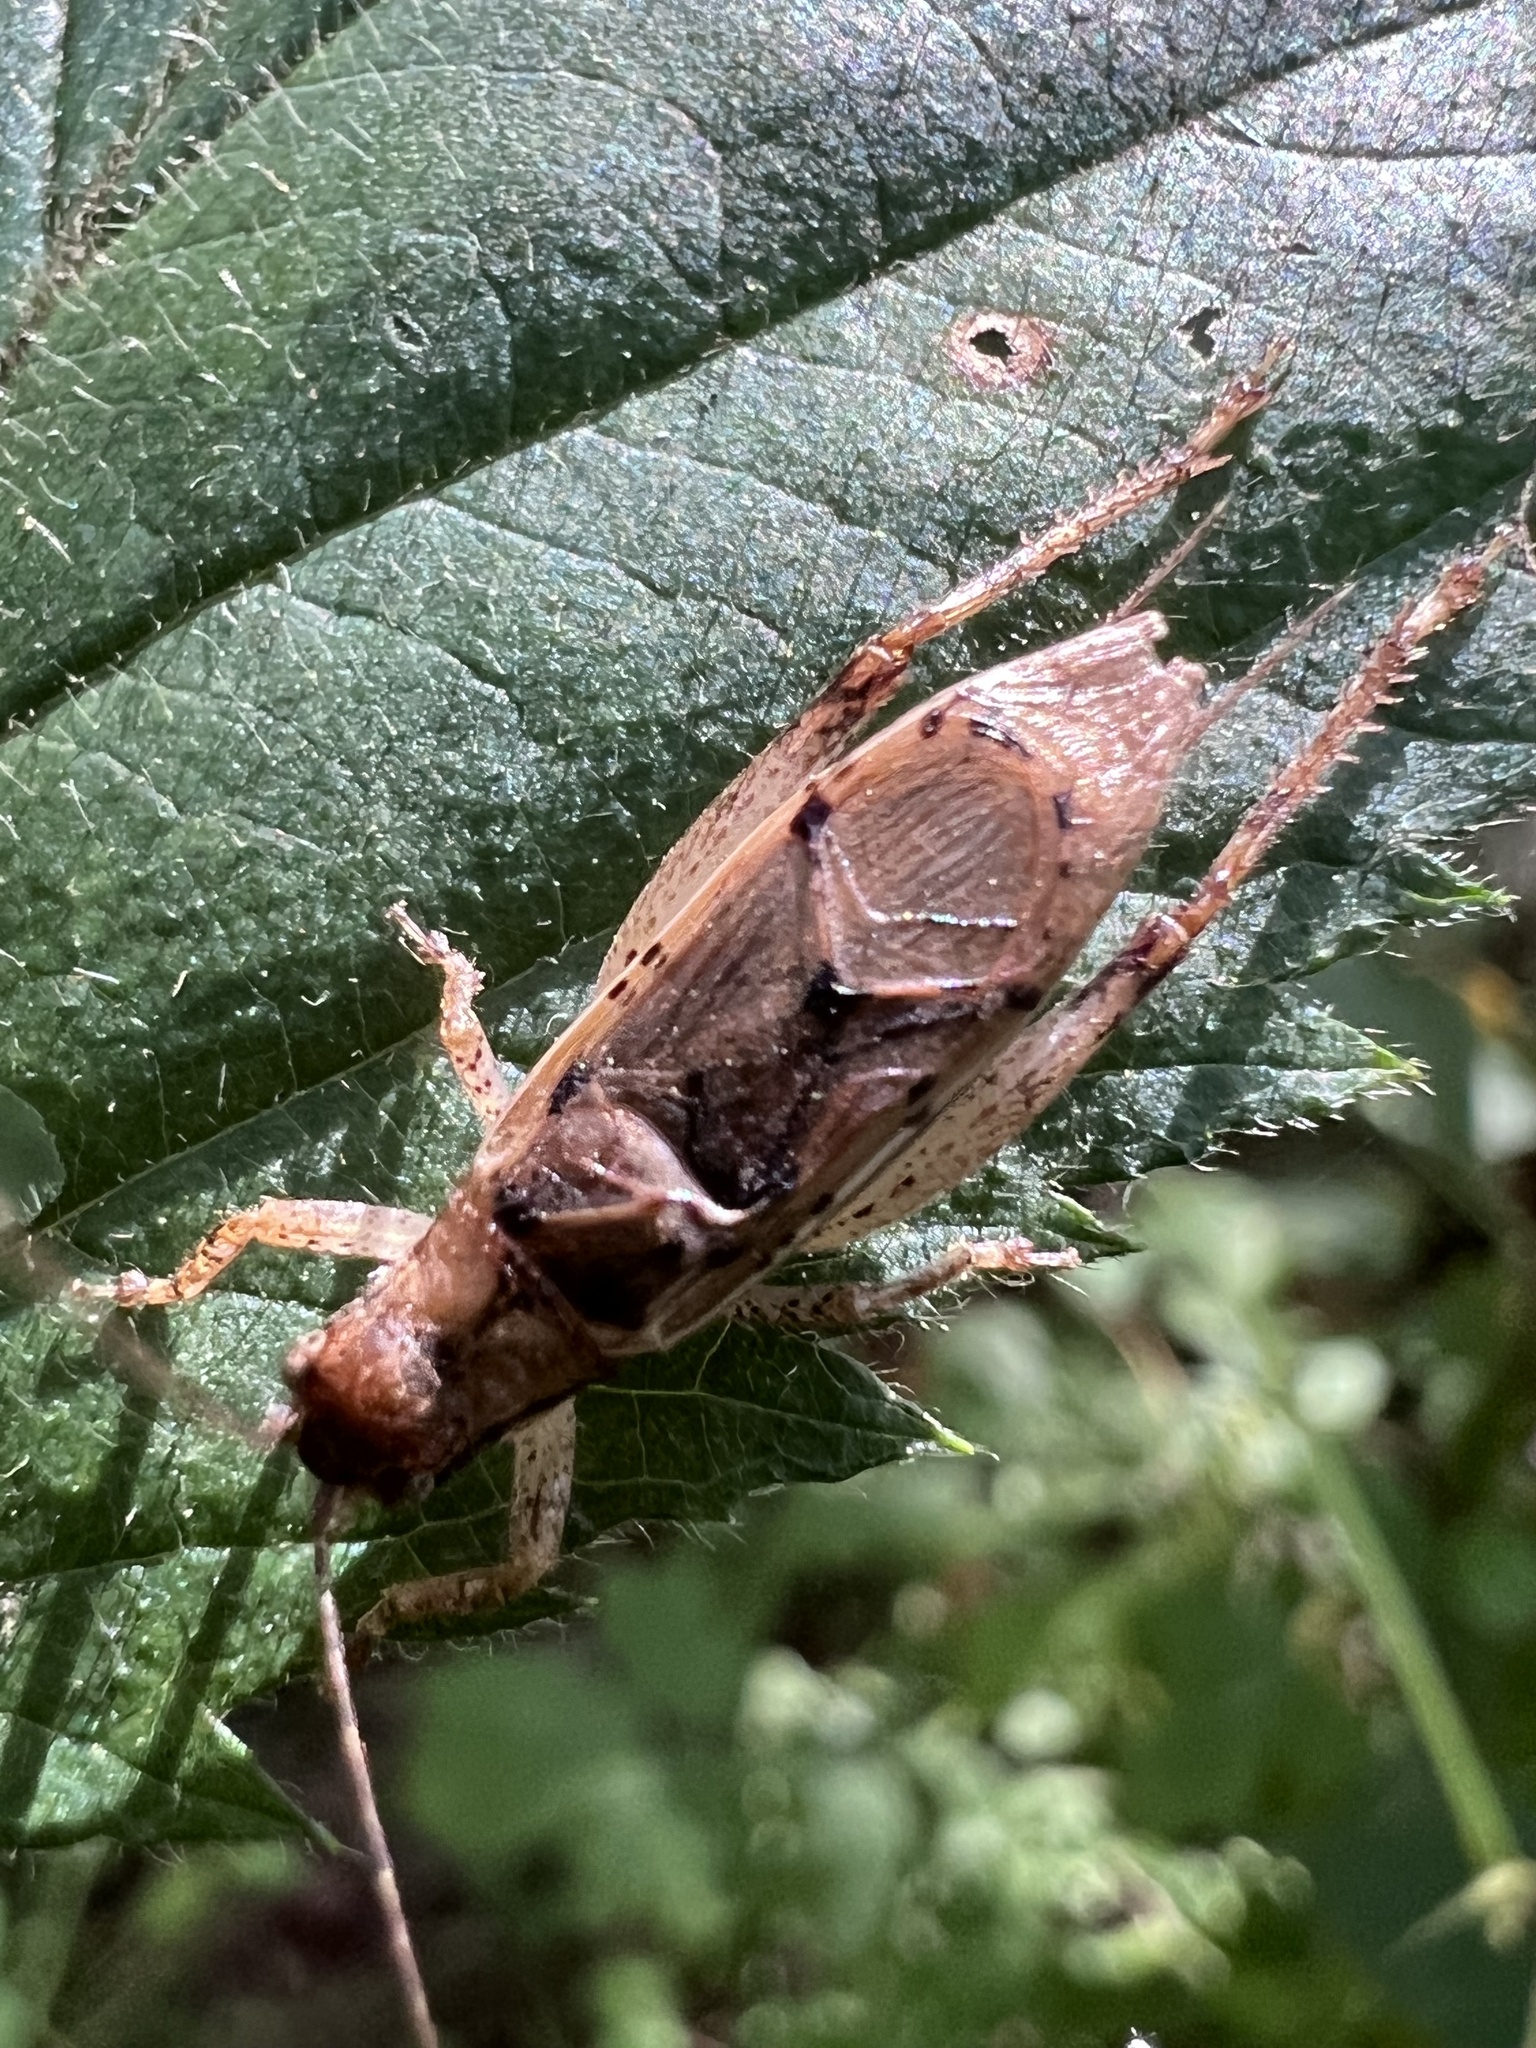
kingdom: Animalia
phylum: Arthropoda
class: Insecta
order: Orthoptera
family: Gryllidae
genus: Hapithus
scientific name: Hapithus saltator
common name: Jumping bush cricket
